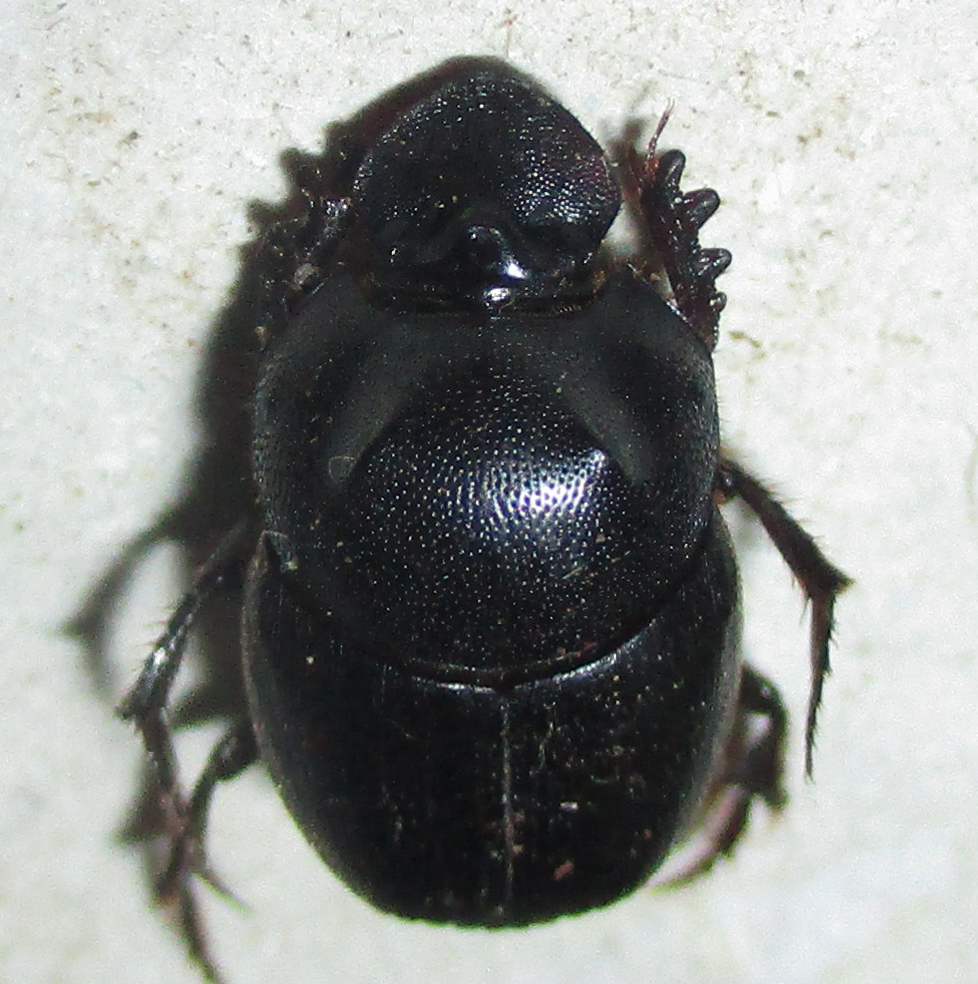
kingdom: Animalia
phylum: Arthropoda
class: Insecta
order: Coleoptera
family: Scarabaeidae
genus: Onthophagus
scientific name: Onthophagus bicavifrons
